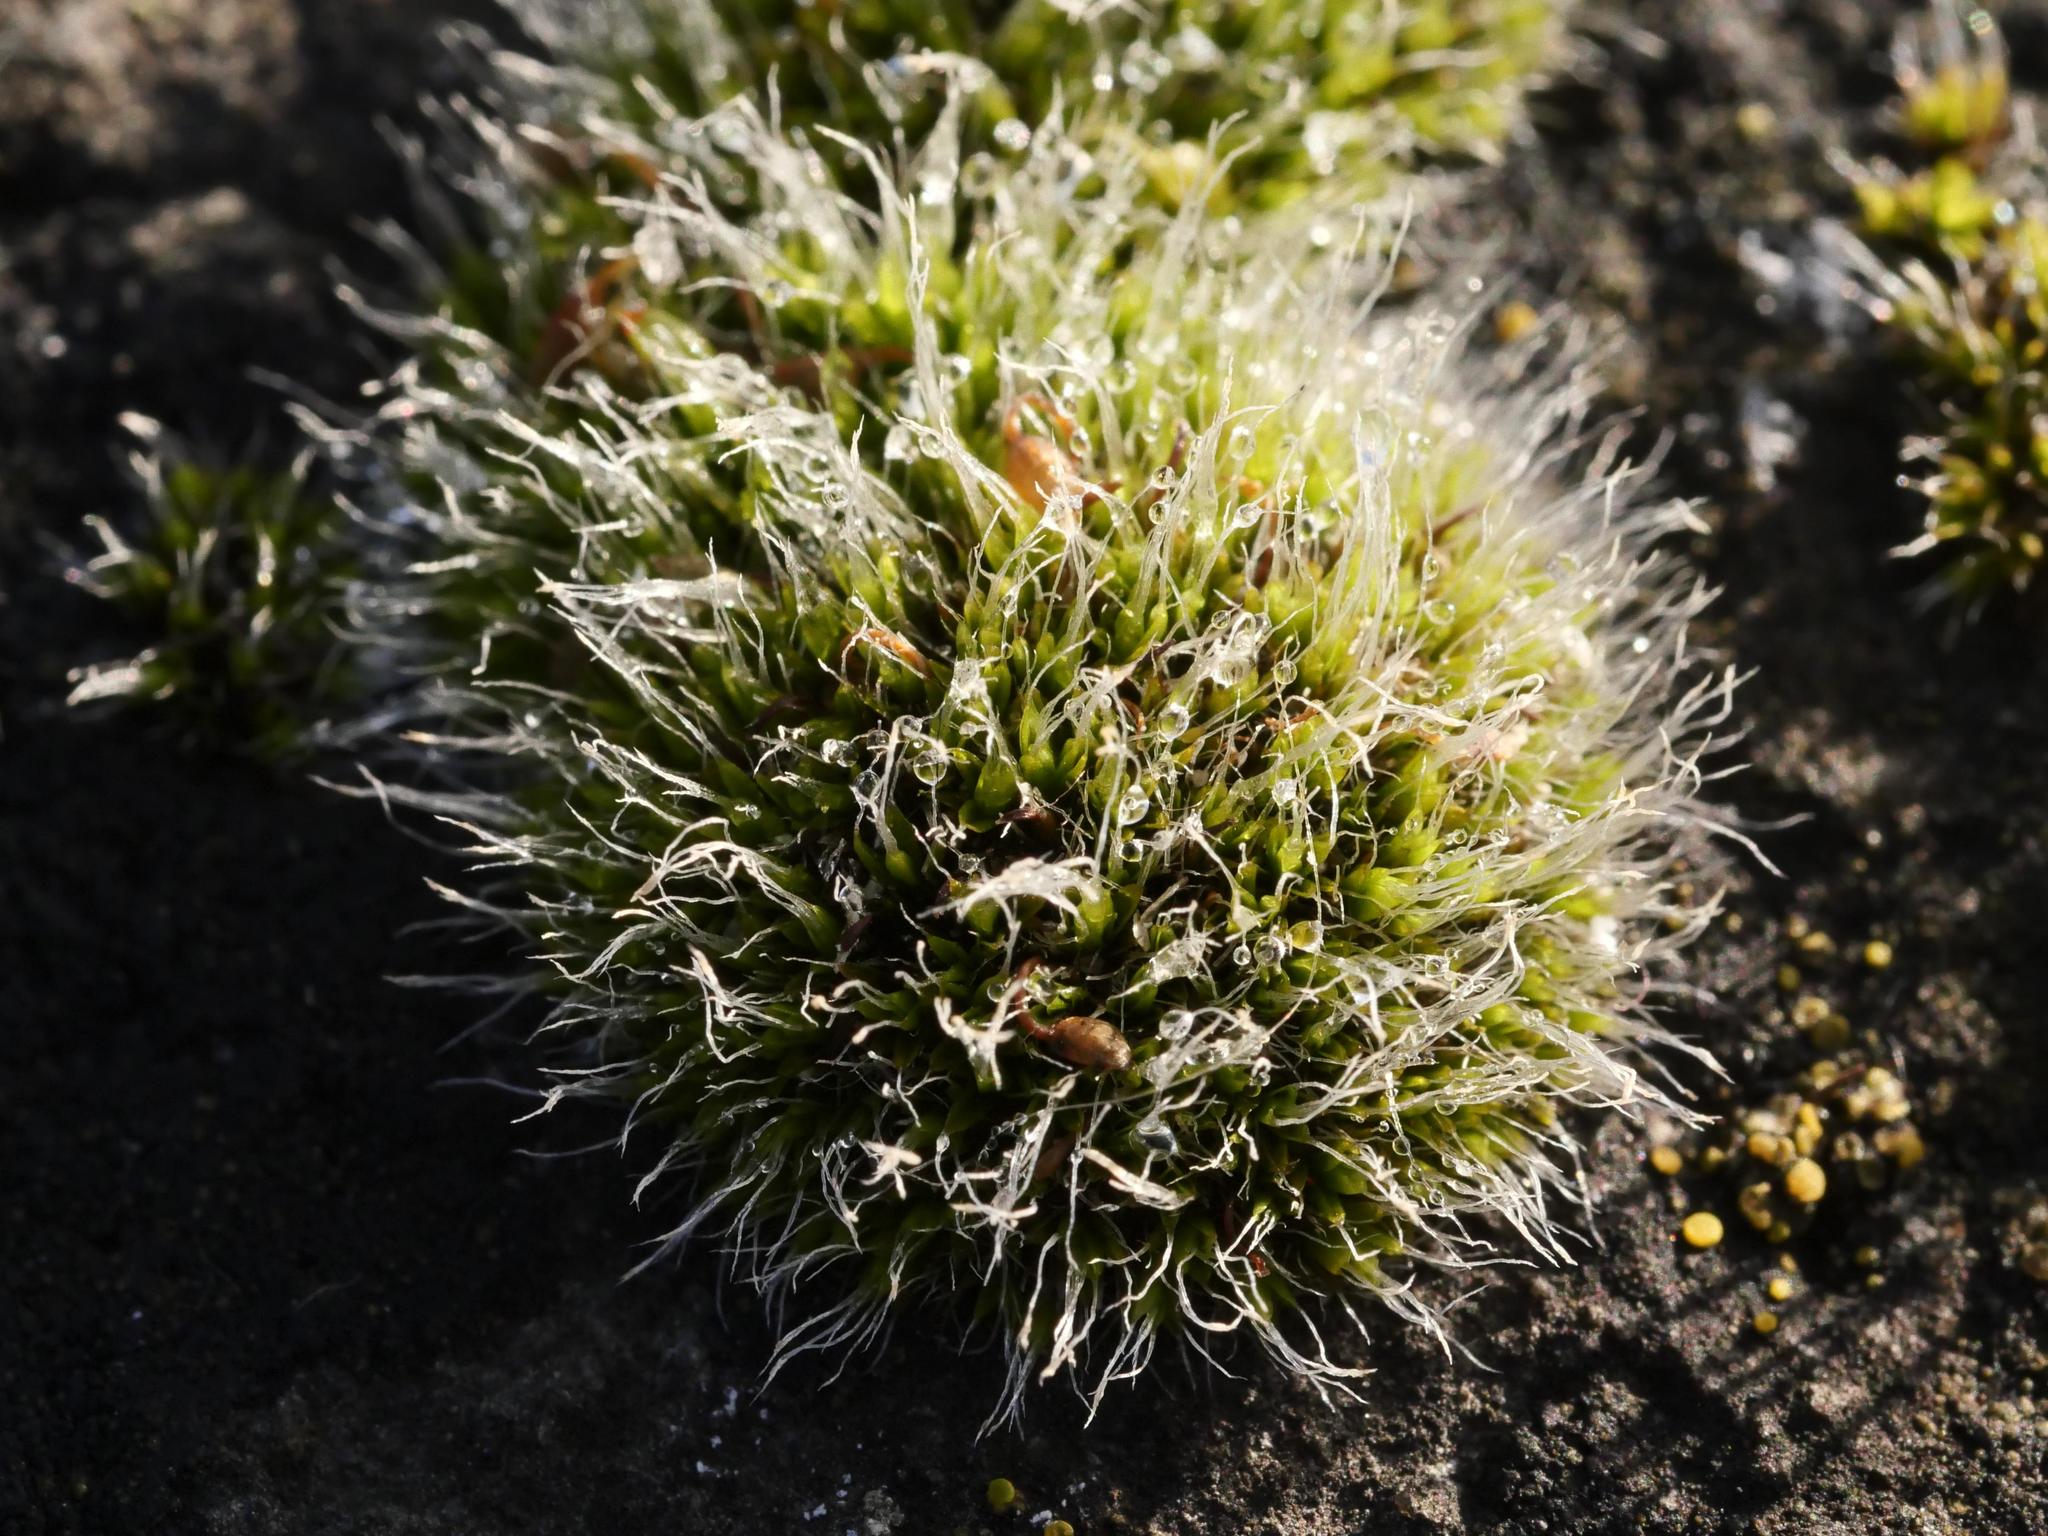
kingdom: Plantae
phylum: Bryophyta
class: Bryopsida
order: Grimmiales
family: Grimmiaceae
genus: Grimmia
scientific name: Grimmia pulvinata
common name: Grey-cushioned grimmia
